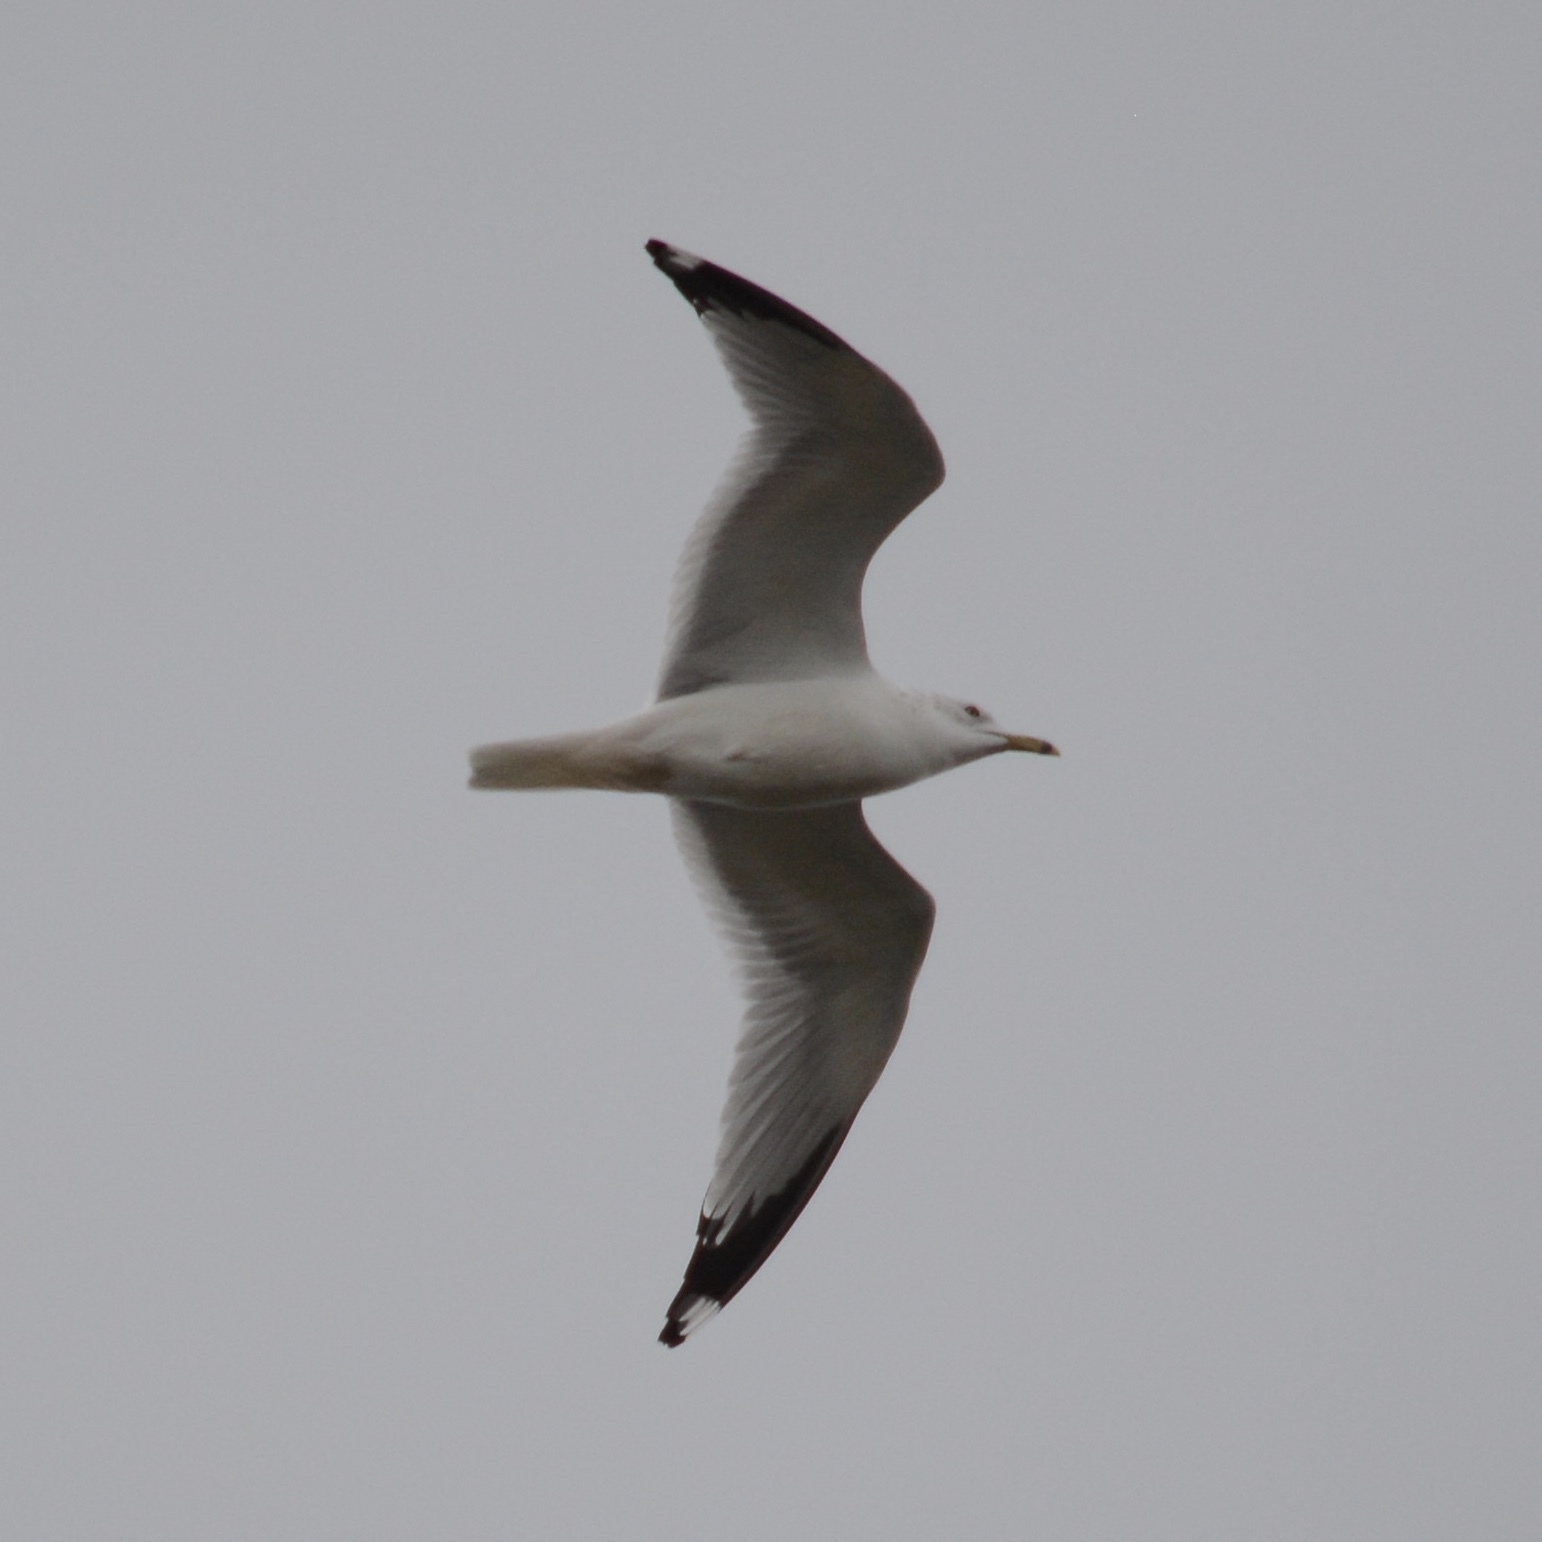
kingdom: Animalia
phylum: Chordata
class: Aves
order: Charadriiformes
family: Laridae
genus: Larus
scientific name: Larus delawarensis
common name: Ring-billed gull
